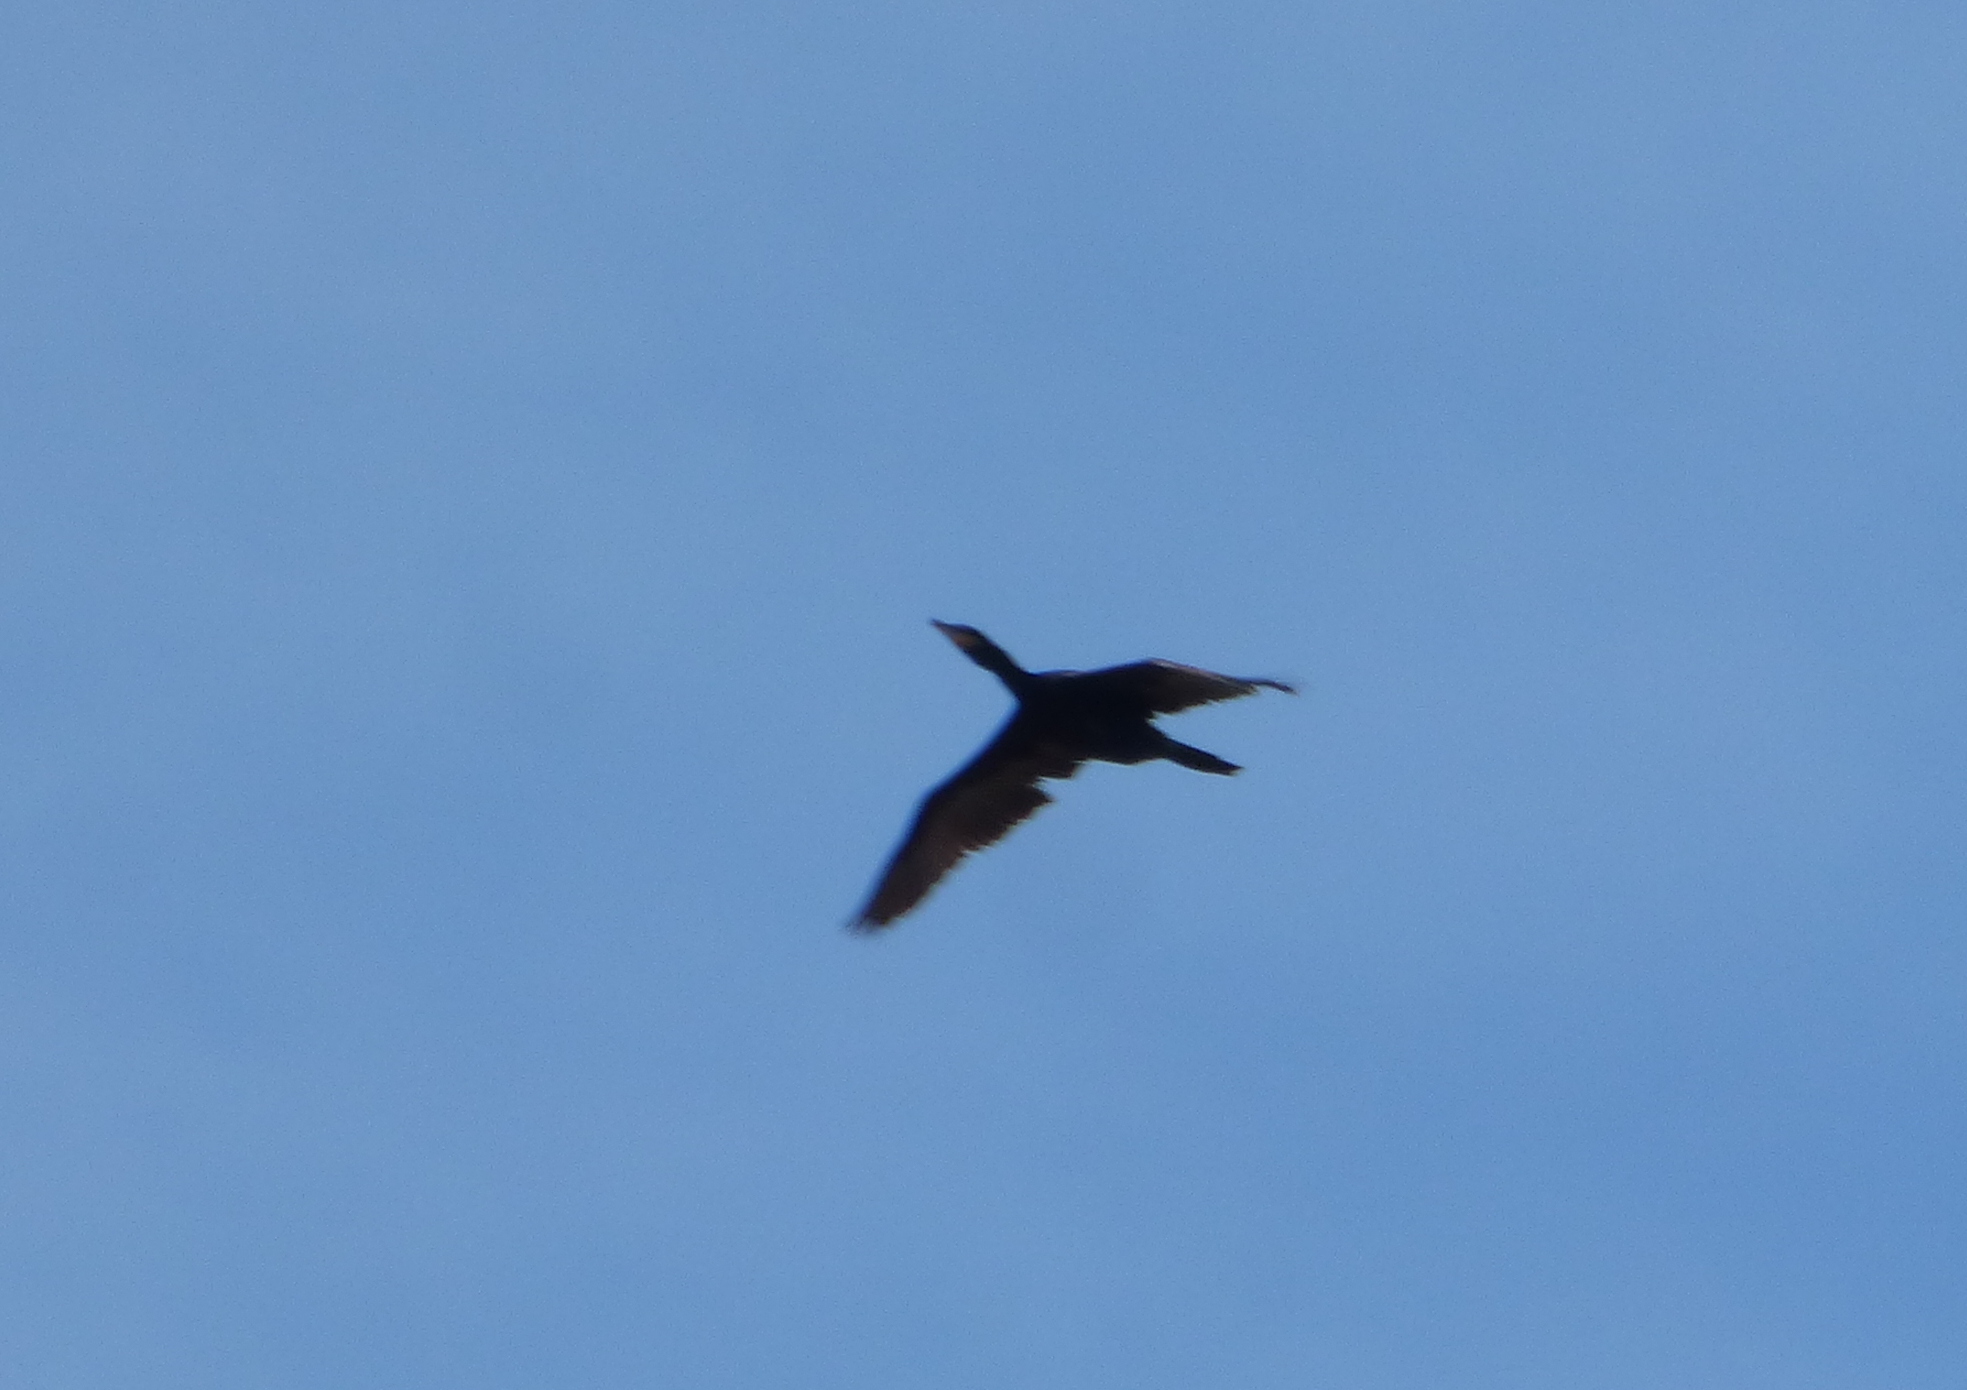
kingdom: Animalia
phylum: Chordata
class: Aves
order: Suliformes
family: Phalacrocoracidae
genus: Phalacrocorax
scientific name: Phalacrocorax brasilianus
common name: Neotropic cormorant
